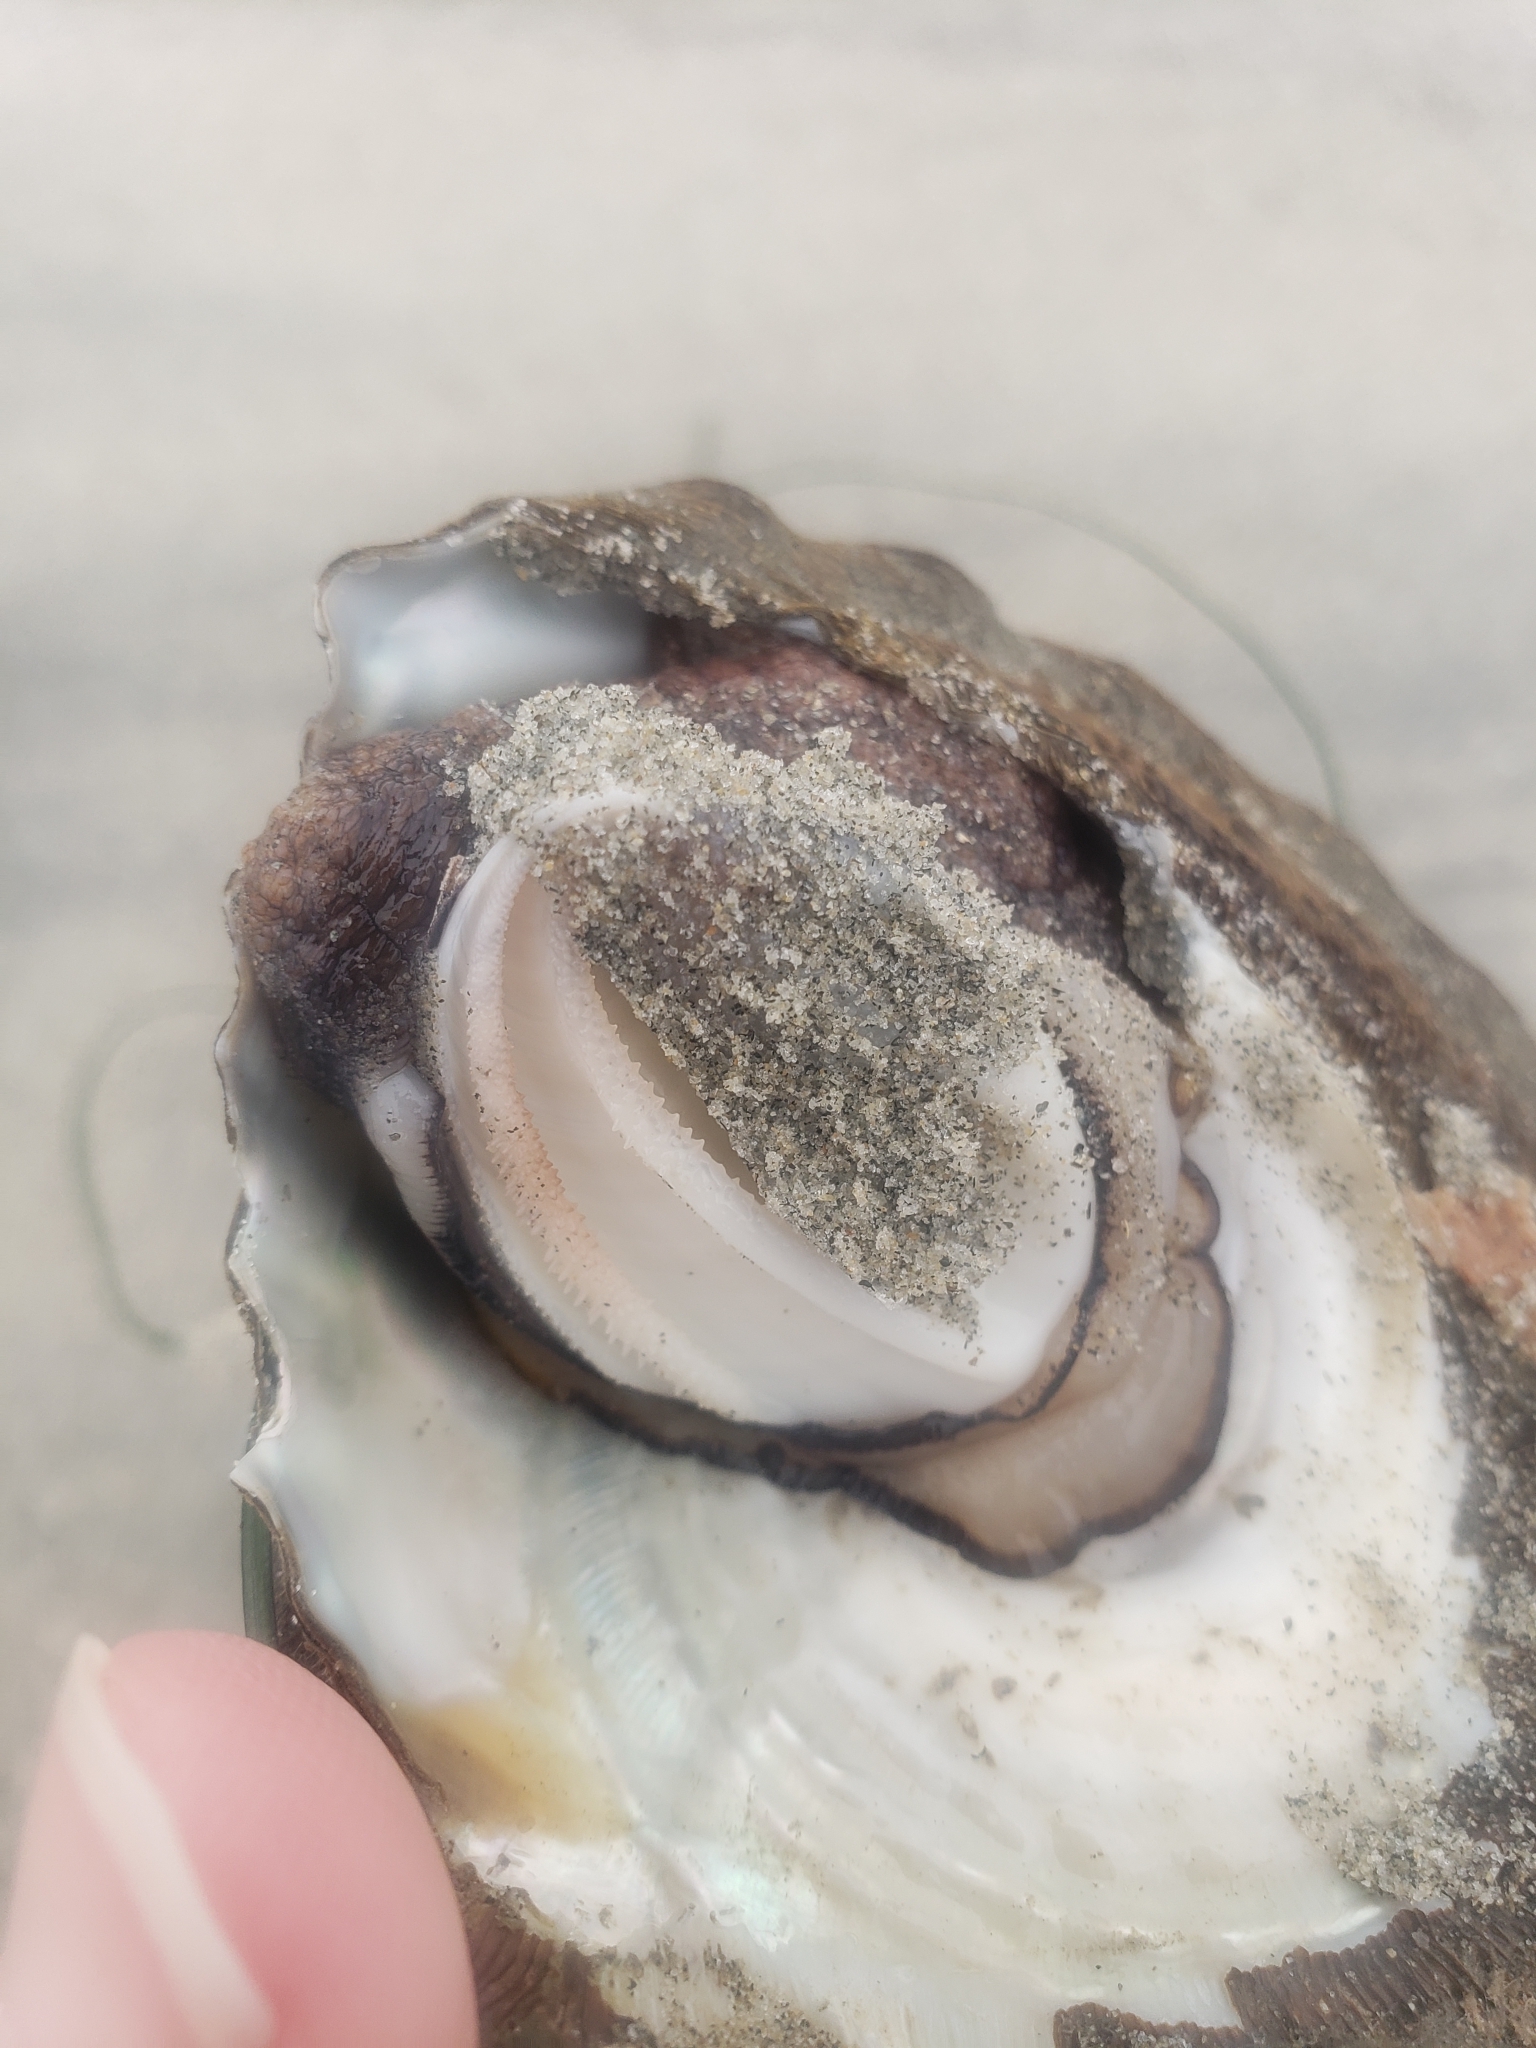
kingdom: Animalia
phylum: Mollusca
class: Gastropoda
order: Trochida
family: Turbinidae
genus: Megastraea
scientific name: Megastraea undosa
